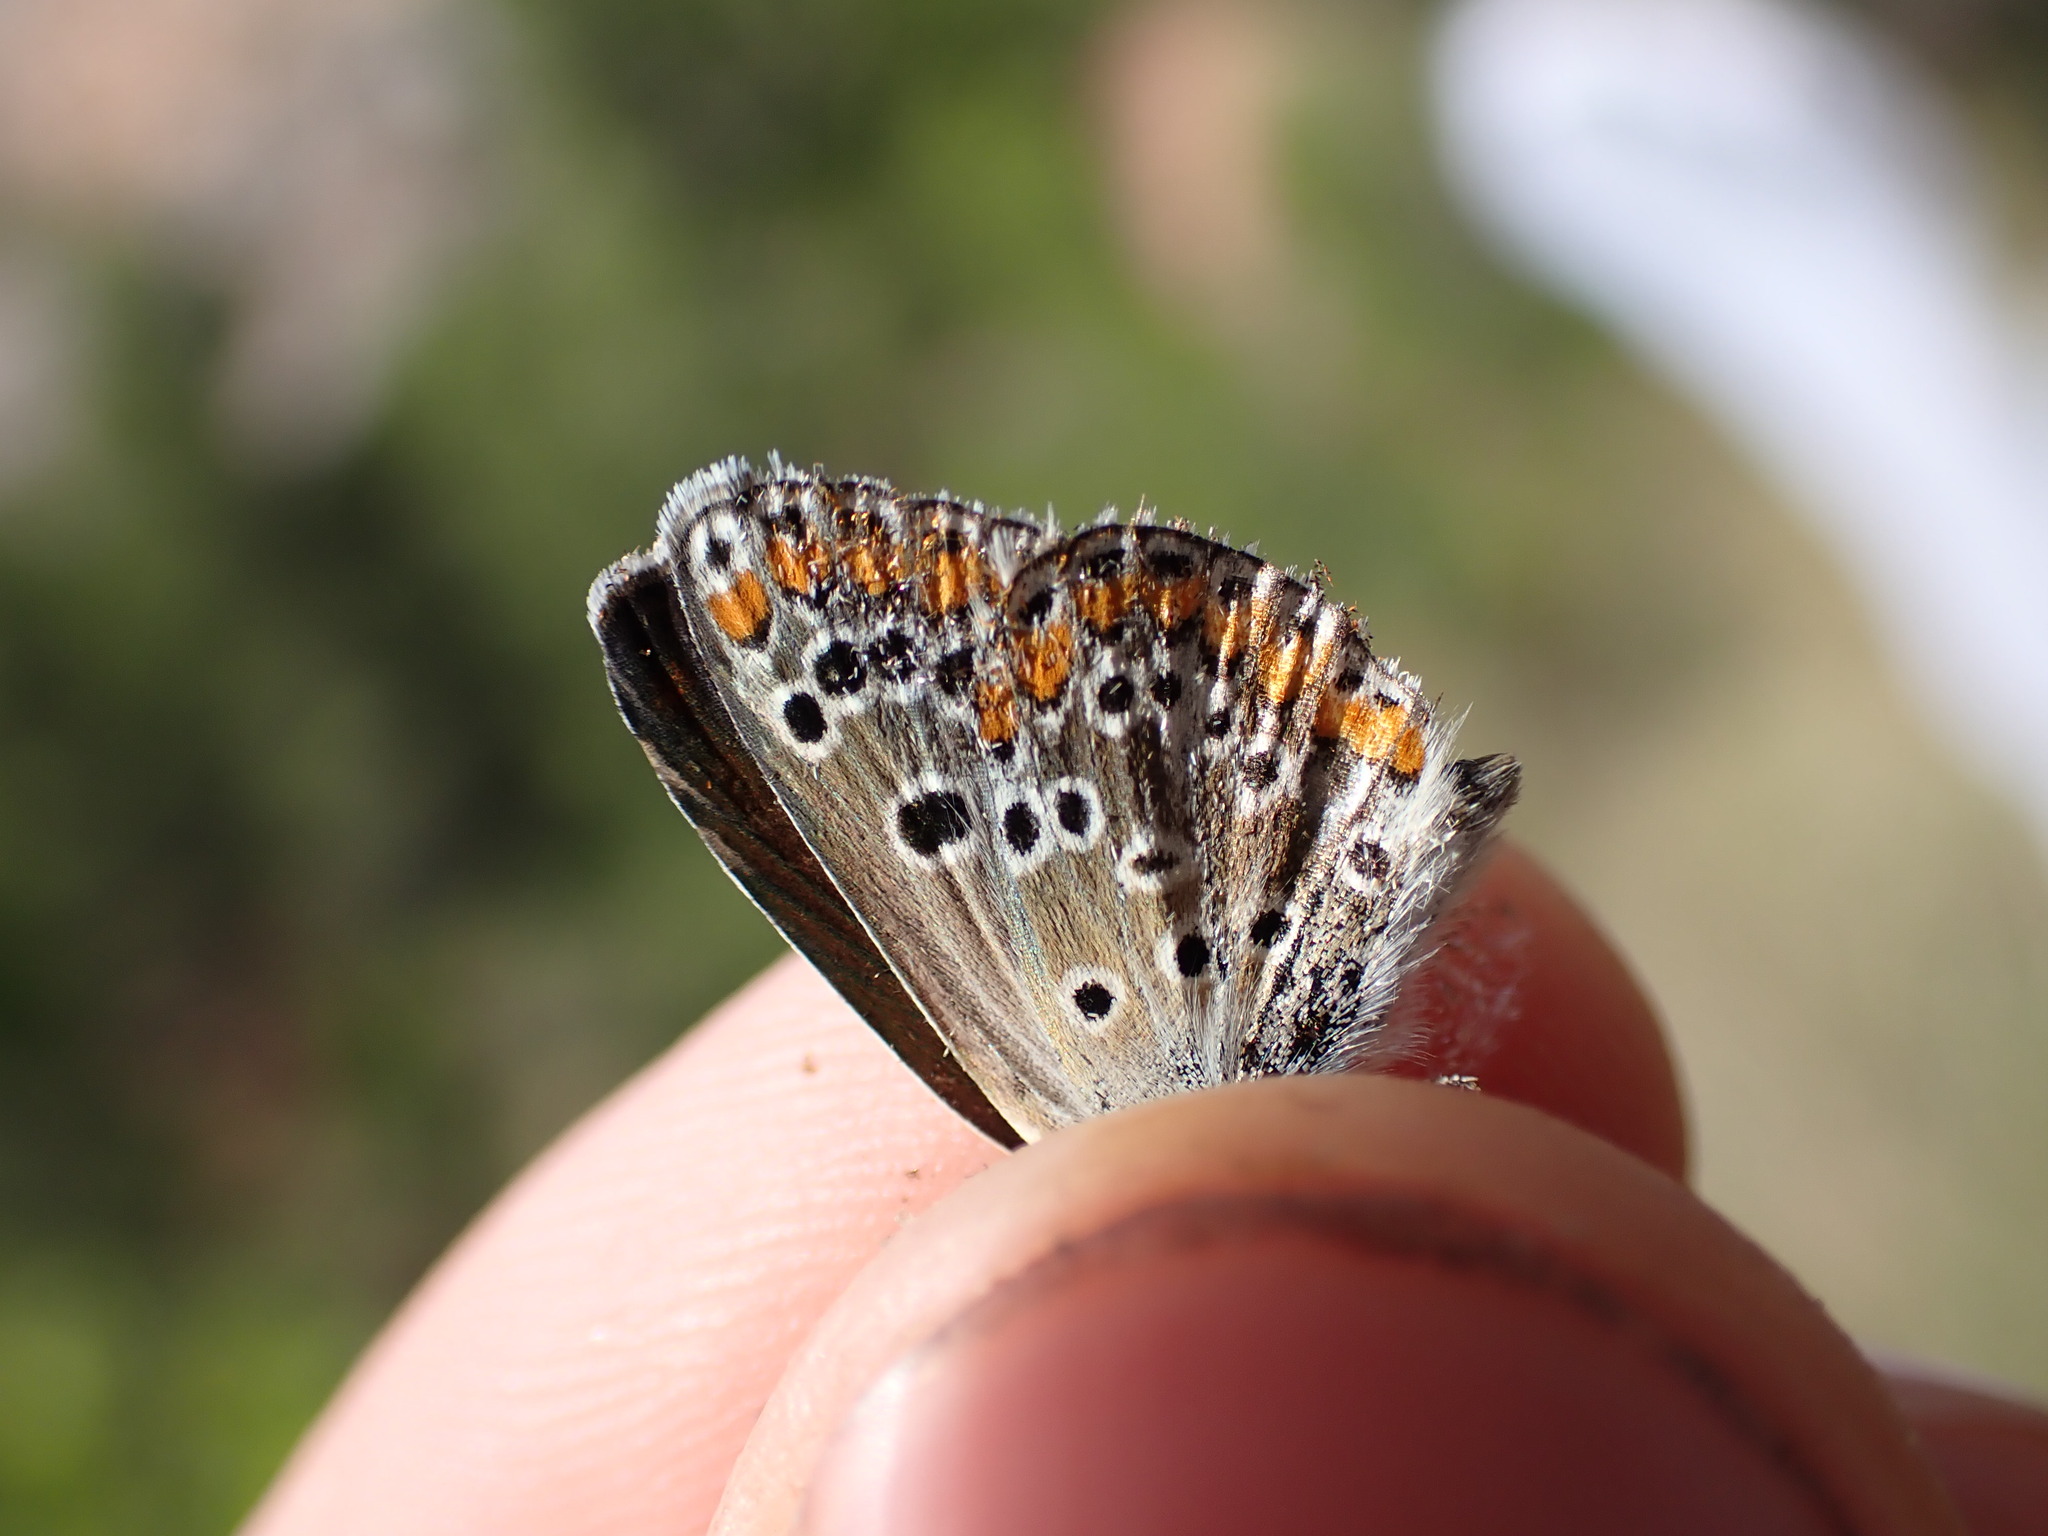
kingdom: Animalia
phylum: Arthropoda
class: Insecta
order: Lepidoptera
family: Lycaenidae
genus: Aricia
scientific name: Aricia agestis
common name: Brown argus
